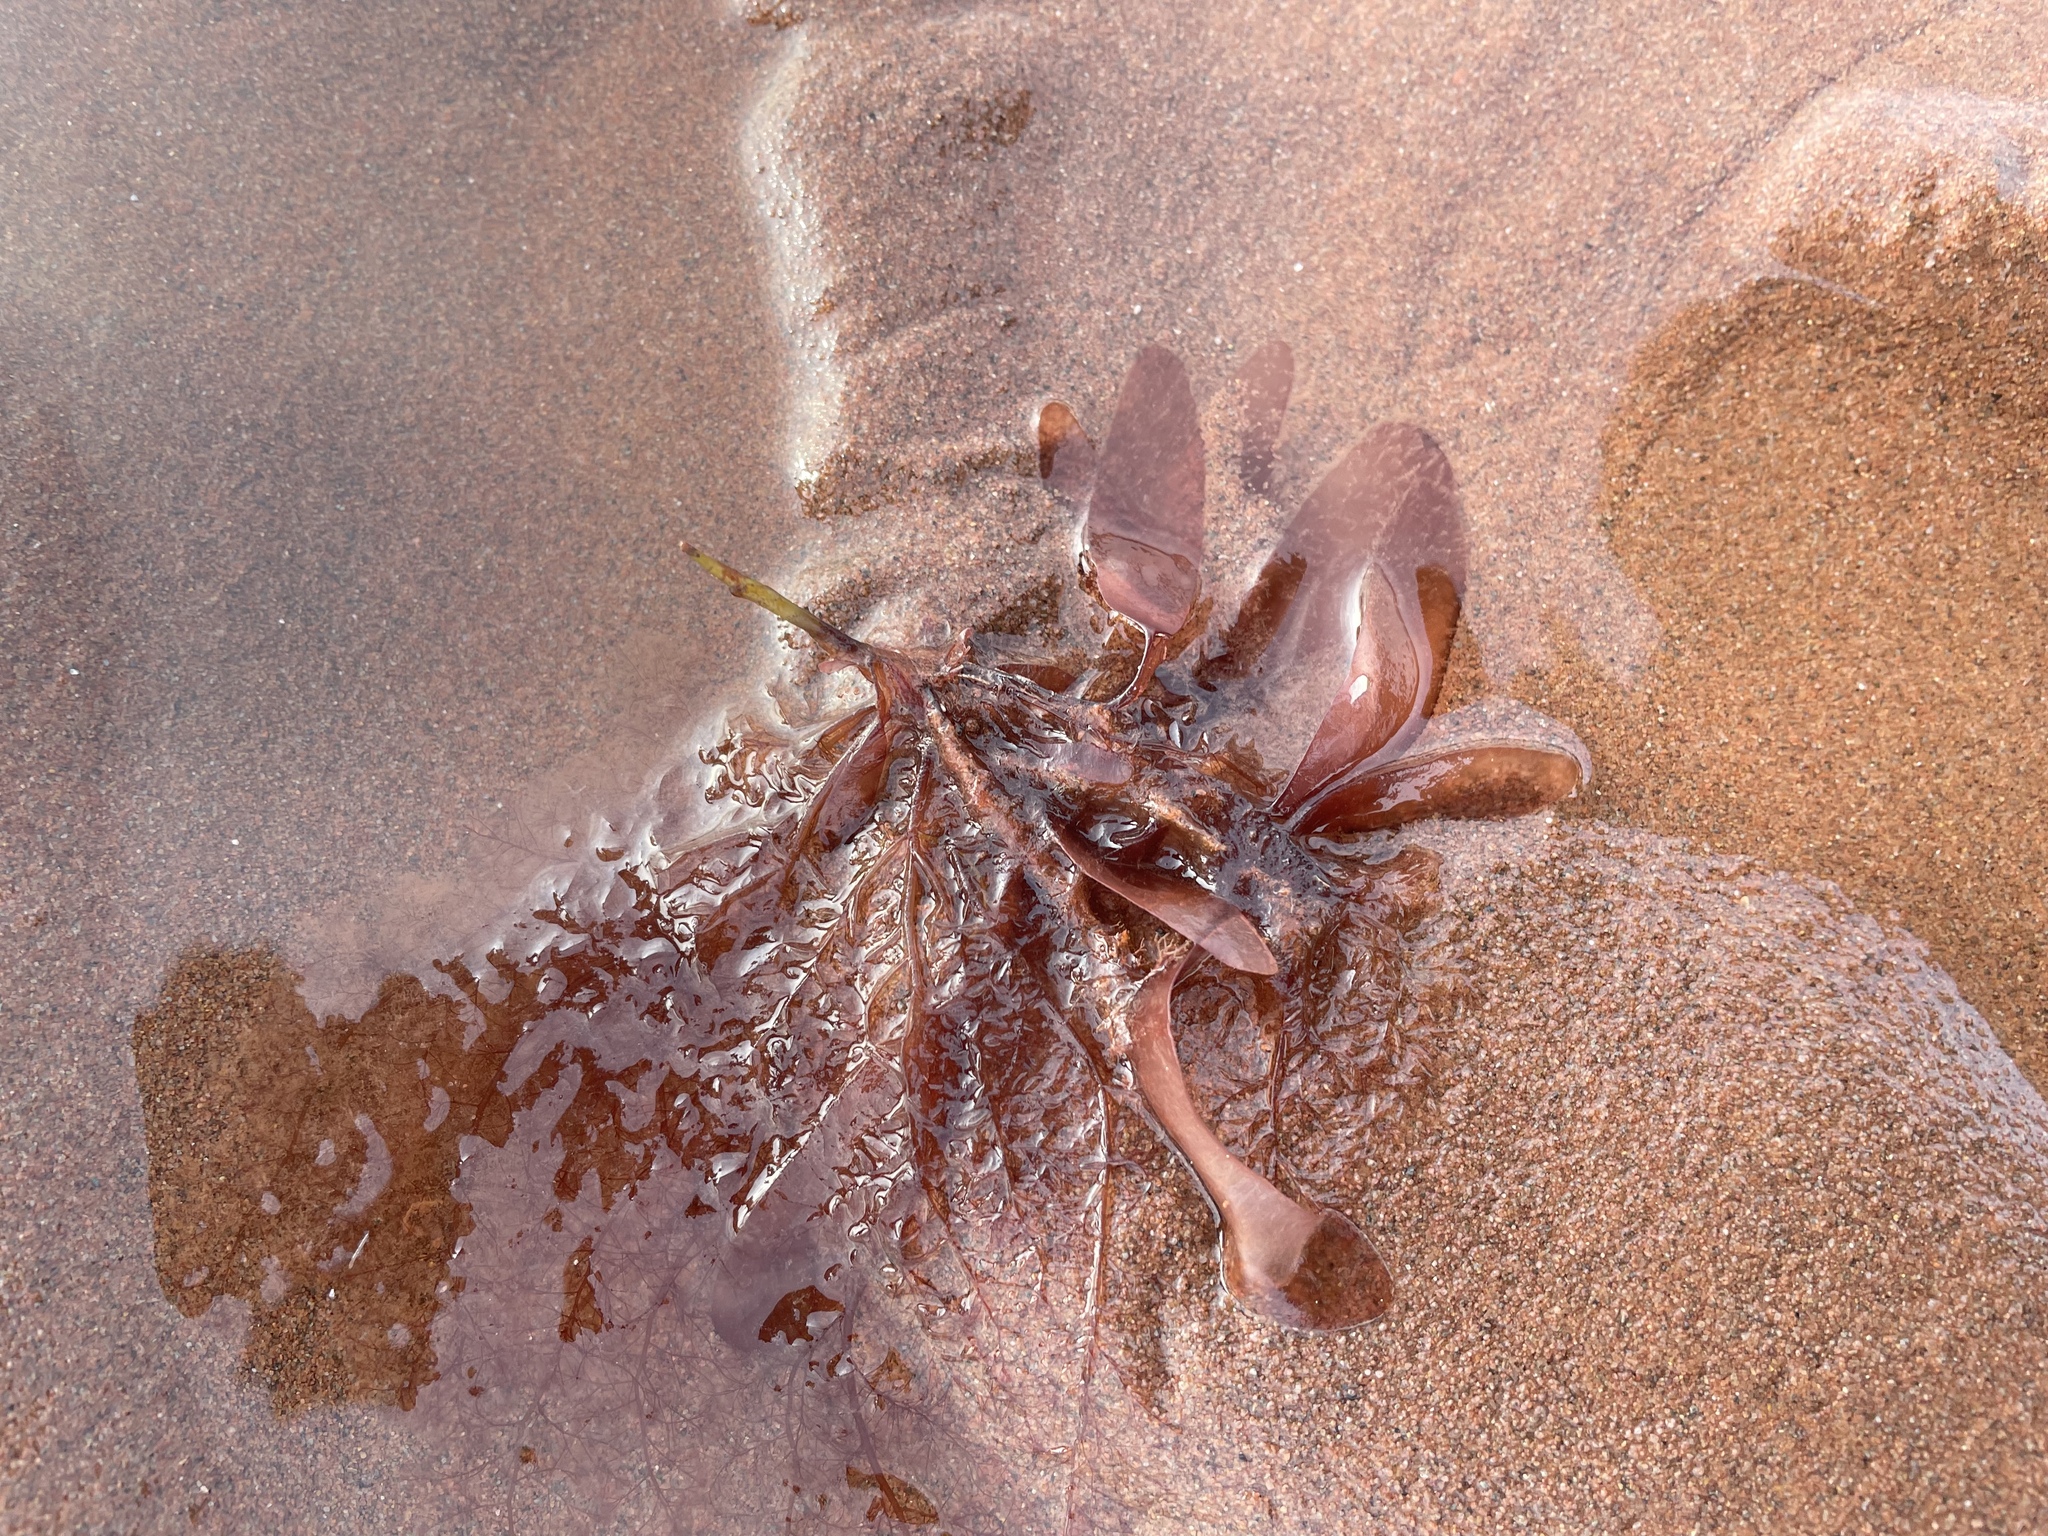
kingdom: Plantae
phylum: Rhodophyta
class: Florideophyceae
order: Palmariales
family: Palmariaceae
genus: Palmaria
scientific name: Palmaria palmata
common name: Dulse
